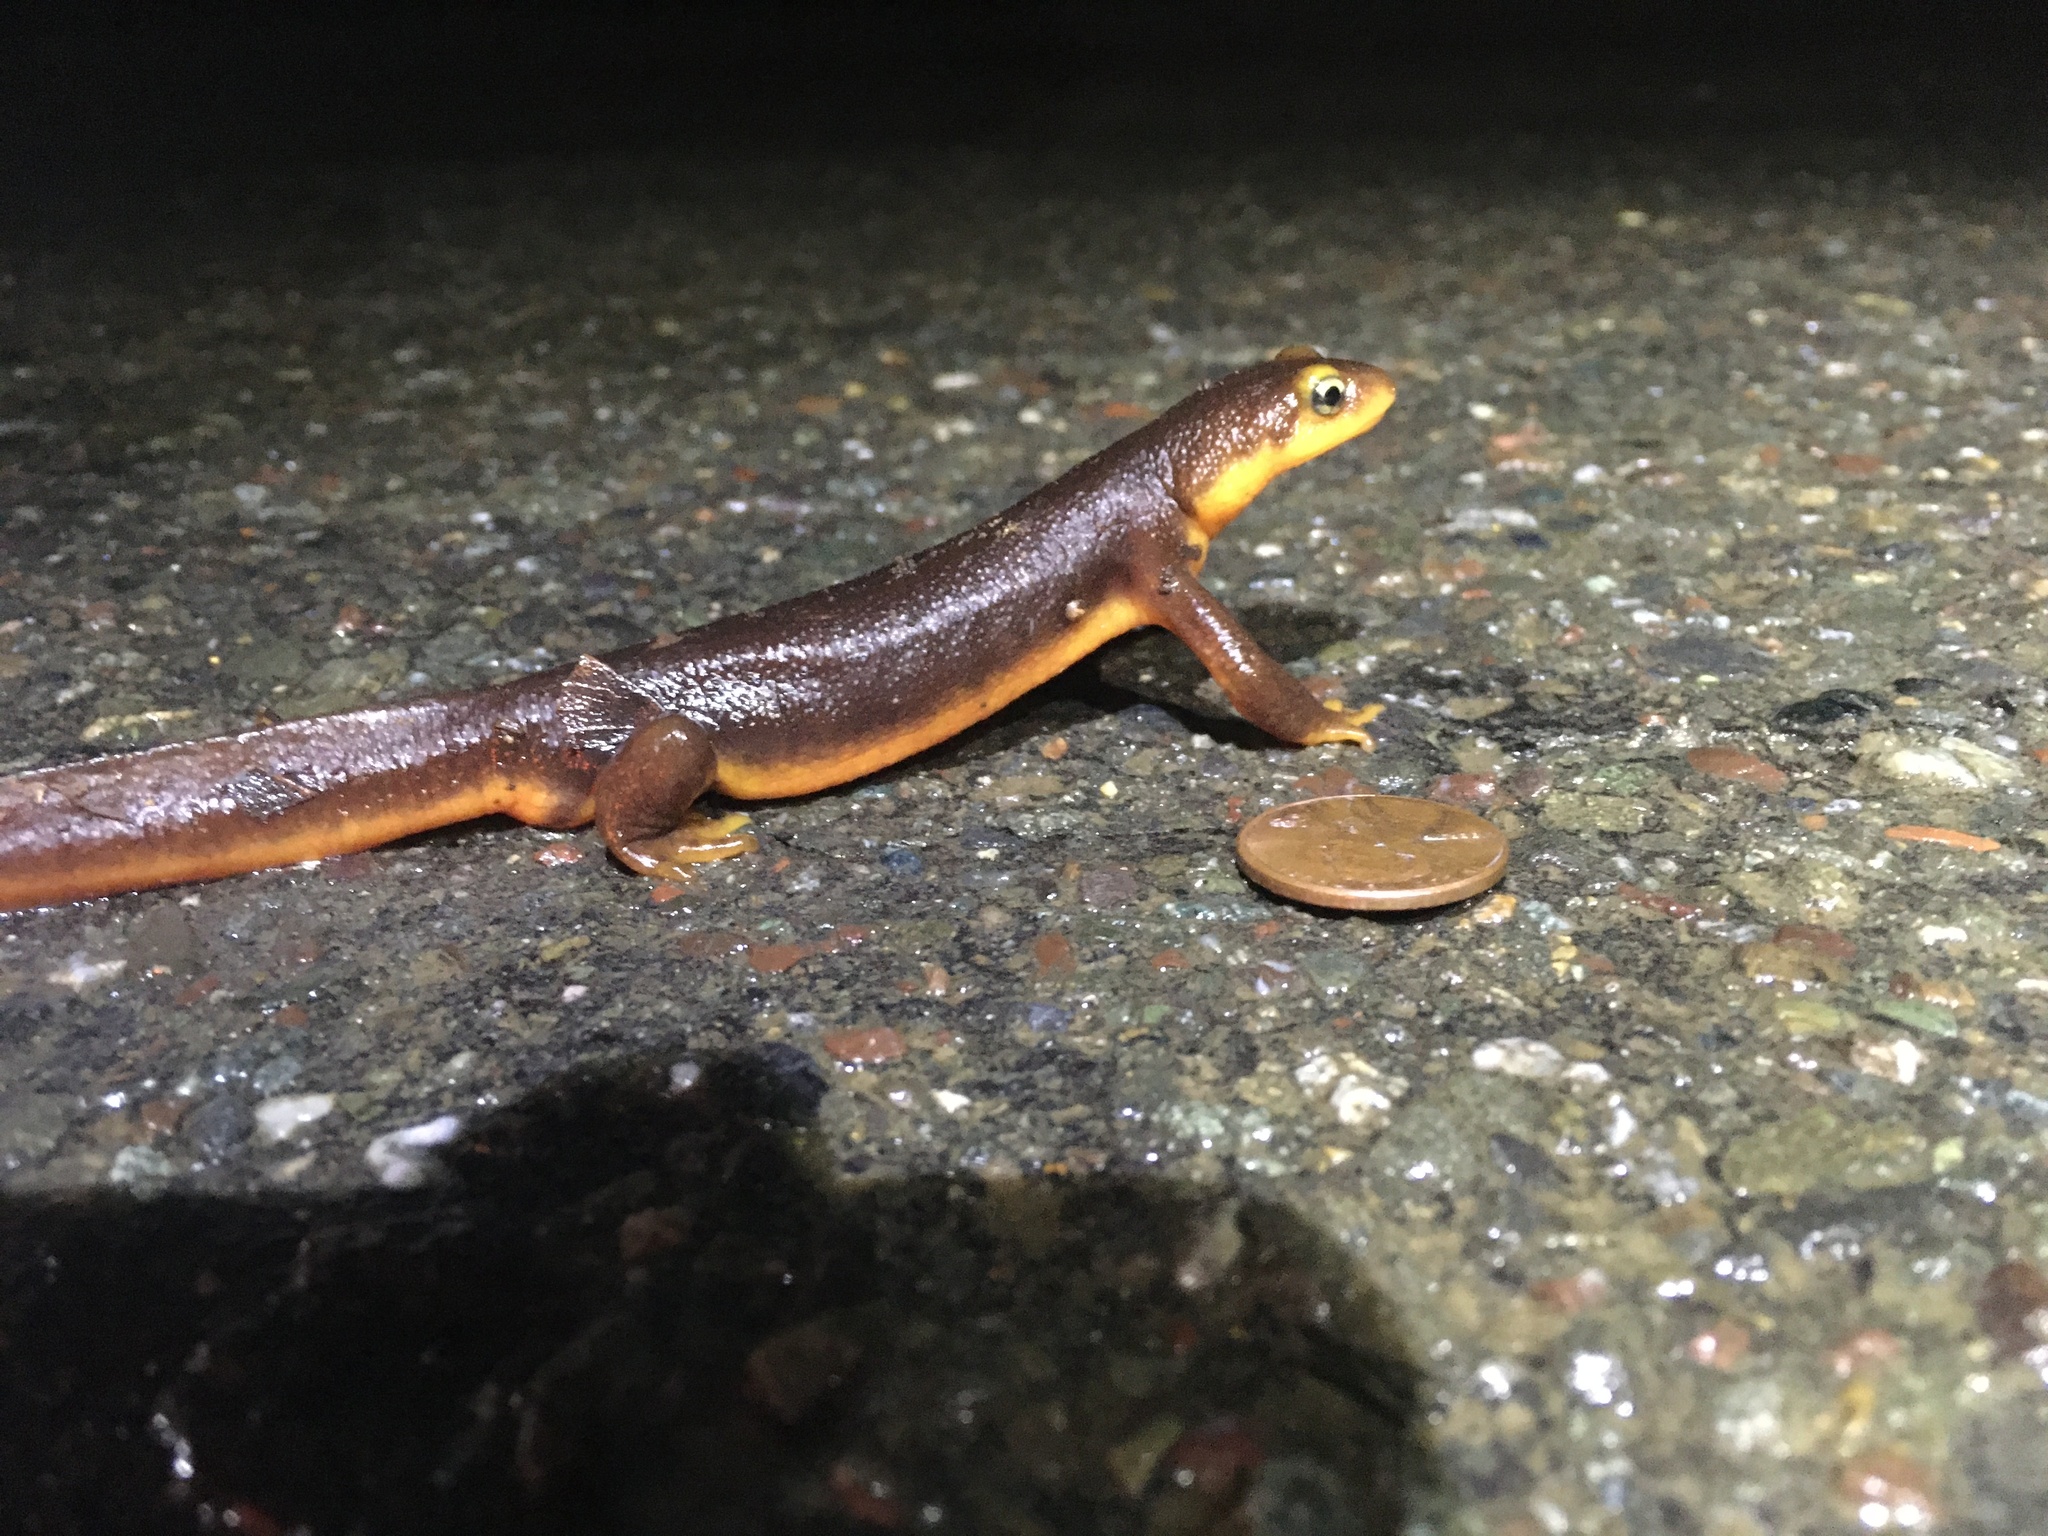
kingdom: Animalia
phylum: Chordata
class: Amphibia
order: Caudata
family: Salamandridae
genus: Taricha
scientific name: Taricha torosa
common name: California newt
